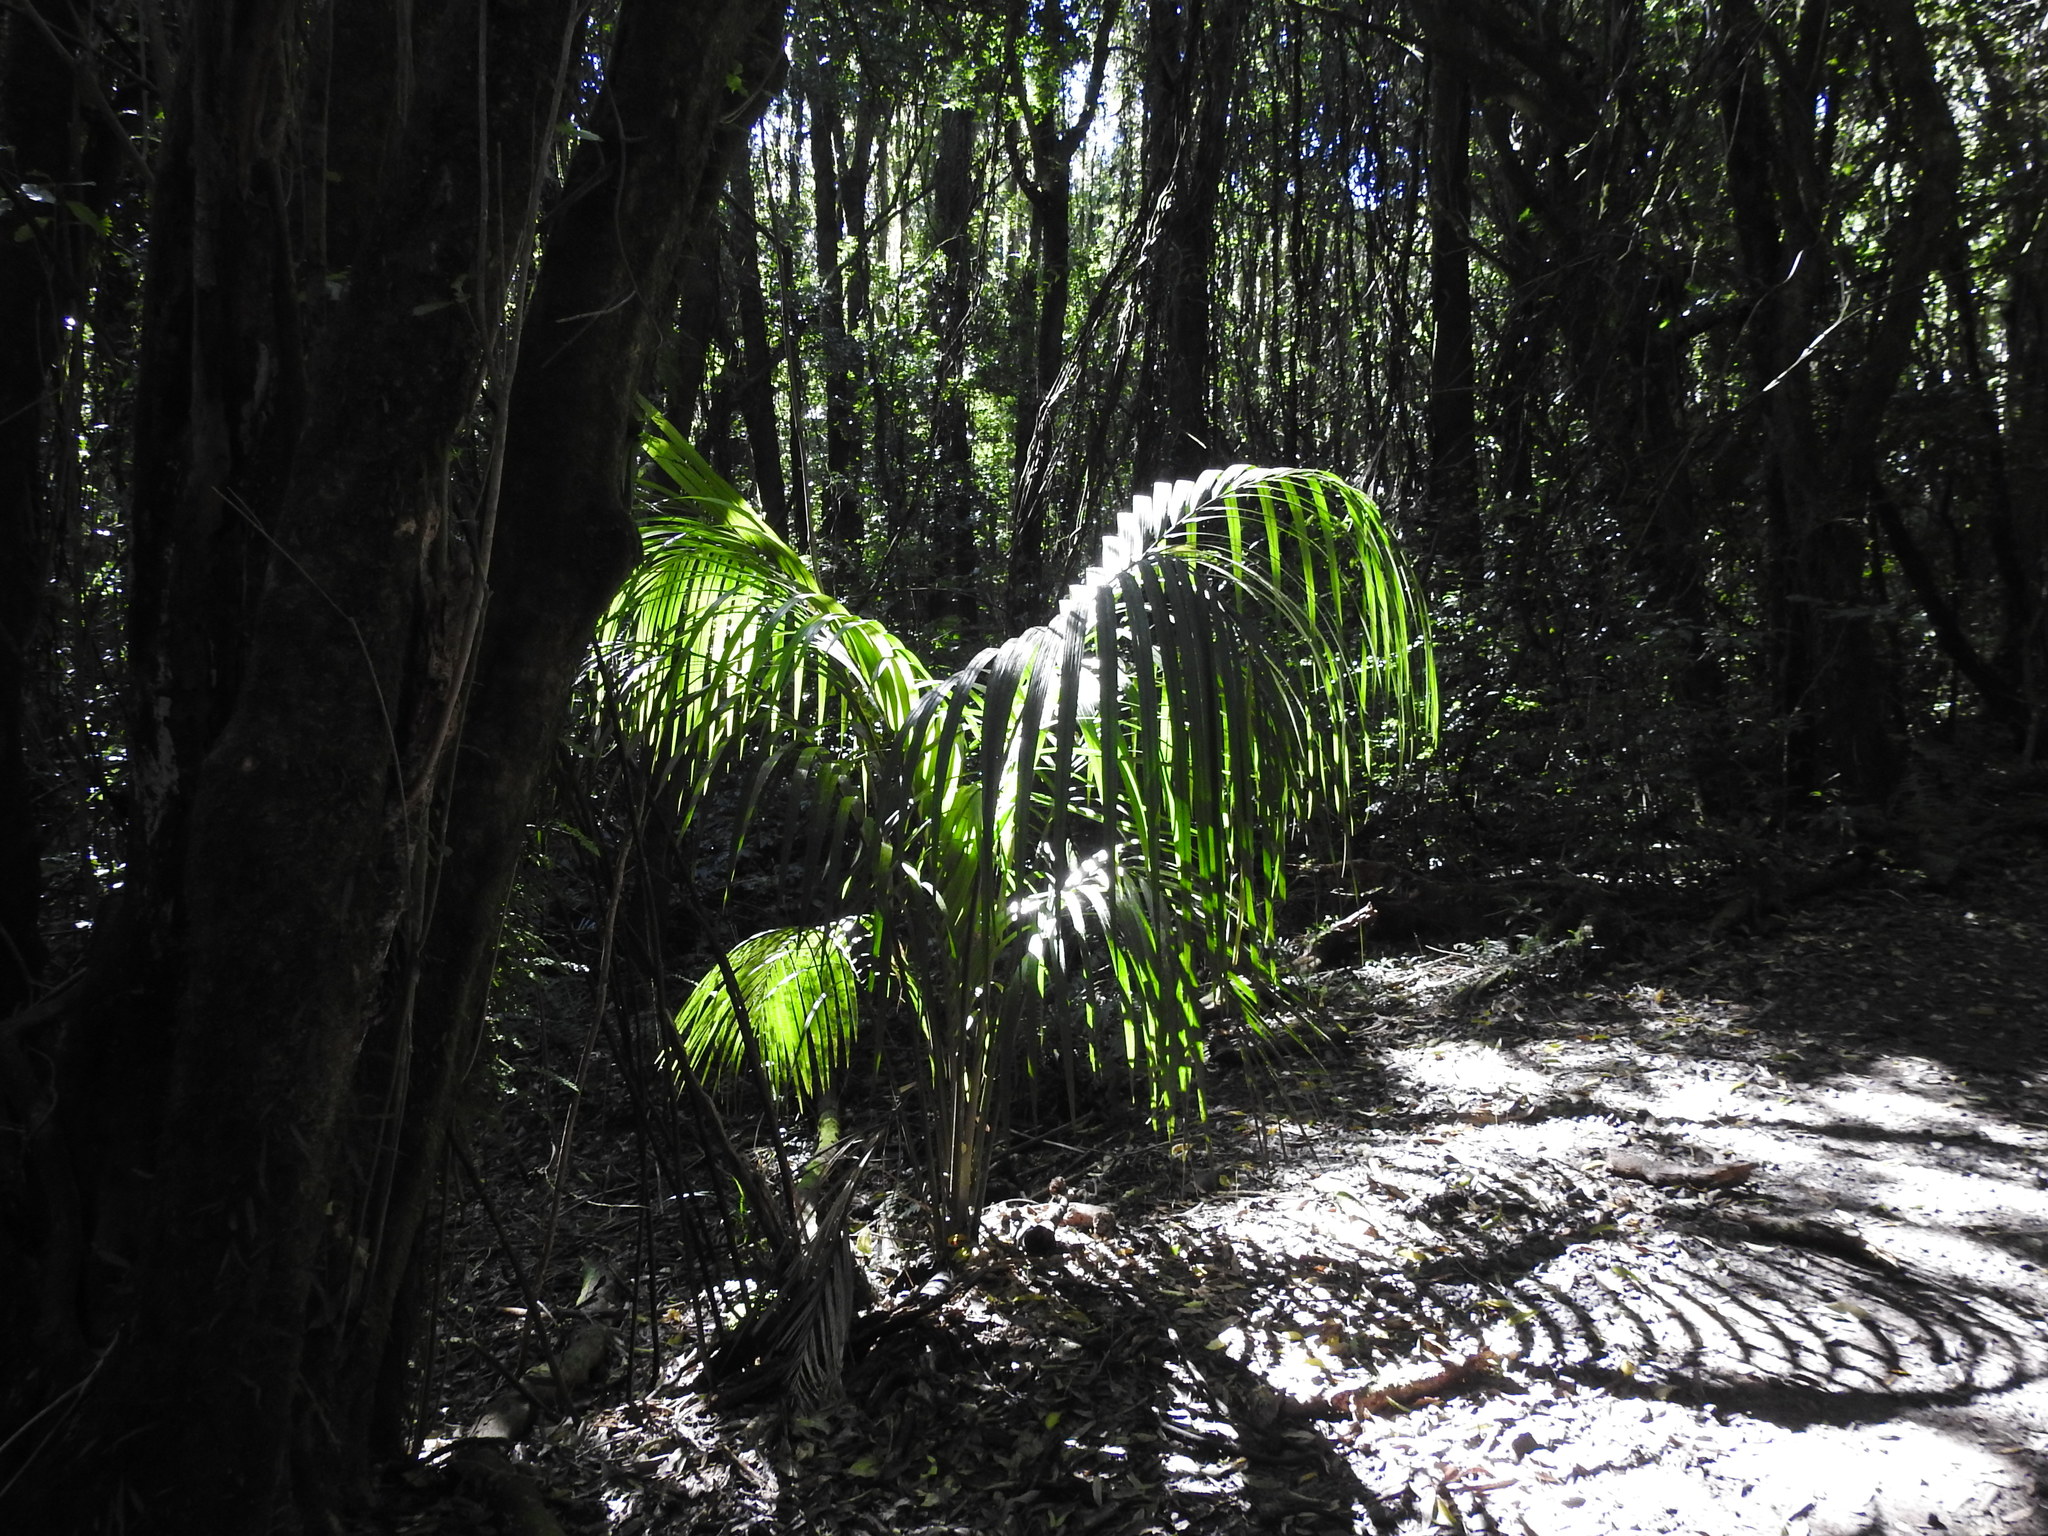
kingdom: Plantae
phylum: Tracheophyta
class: Liliopsida
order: Arecales
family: Arecaceae
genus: Rhopalostylis
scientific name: Rhopalostylis sapida
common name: Feather-duster palm
